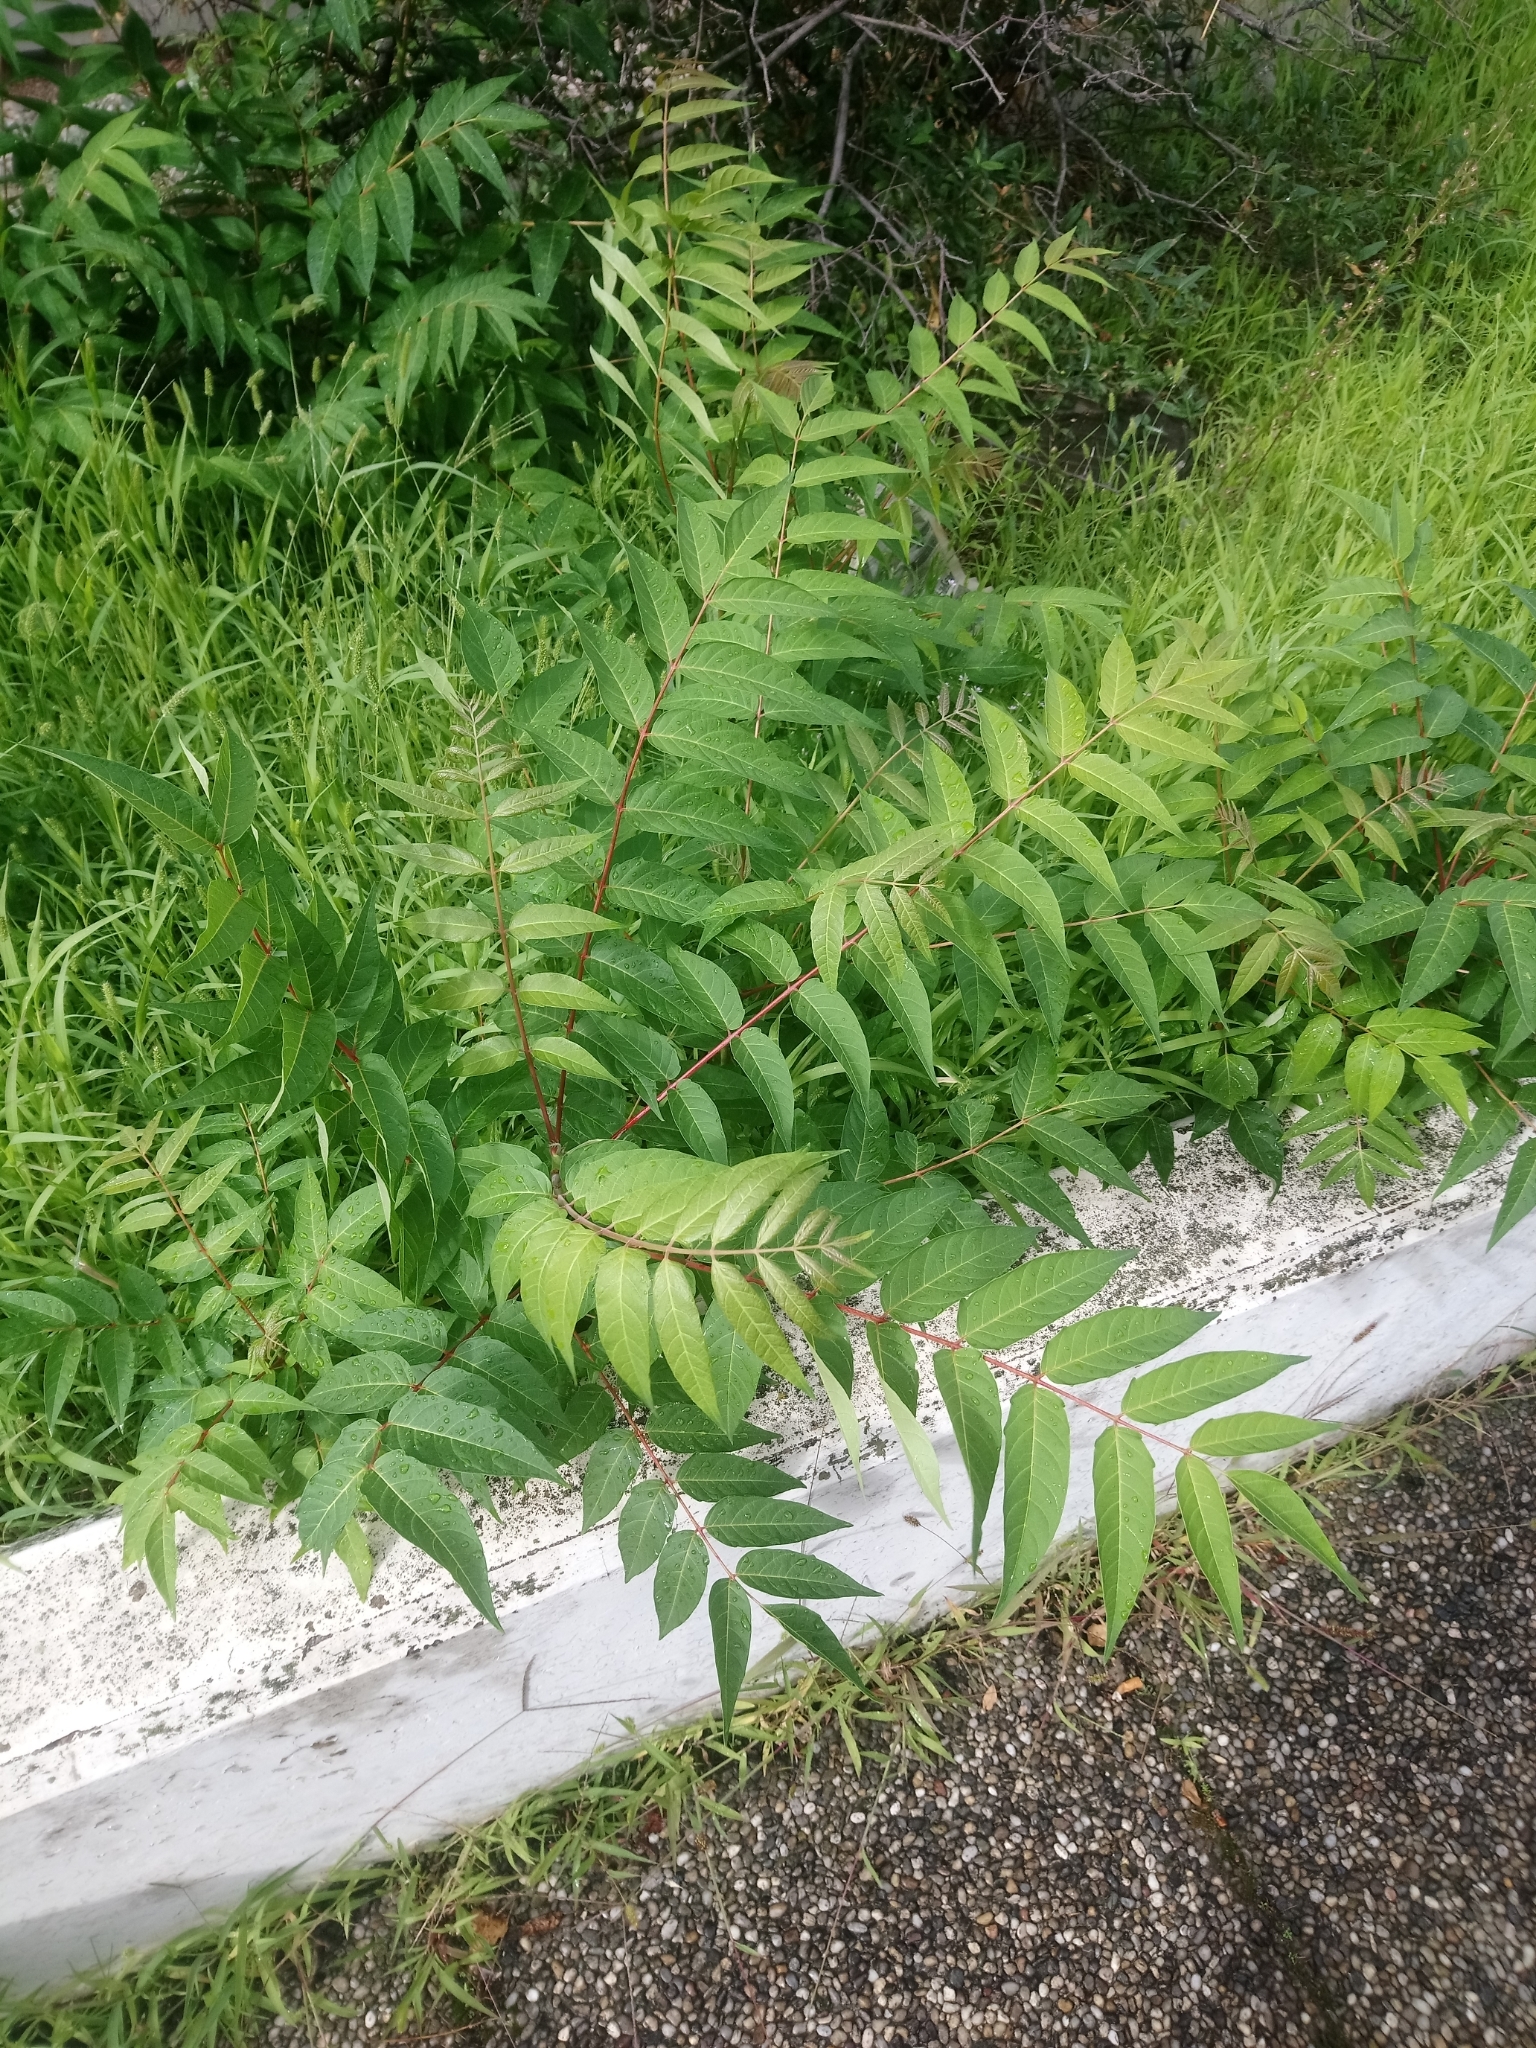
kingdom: Plantae
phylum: Tracheophyta
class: Magnoliopsida
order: Sapindales
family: Simaroubaceae
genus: Ailanthus
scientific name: Ailanthus altissima
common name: Tree-of-heaven
